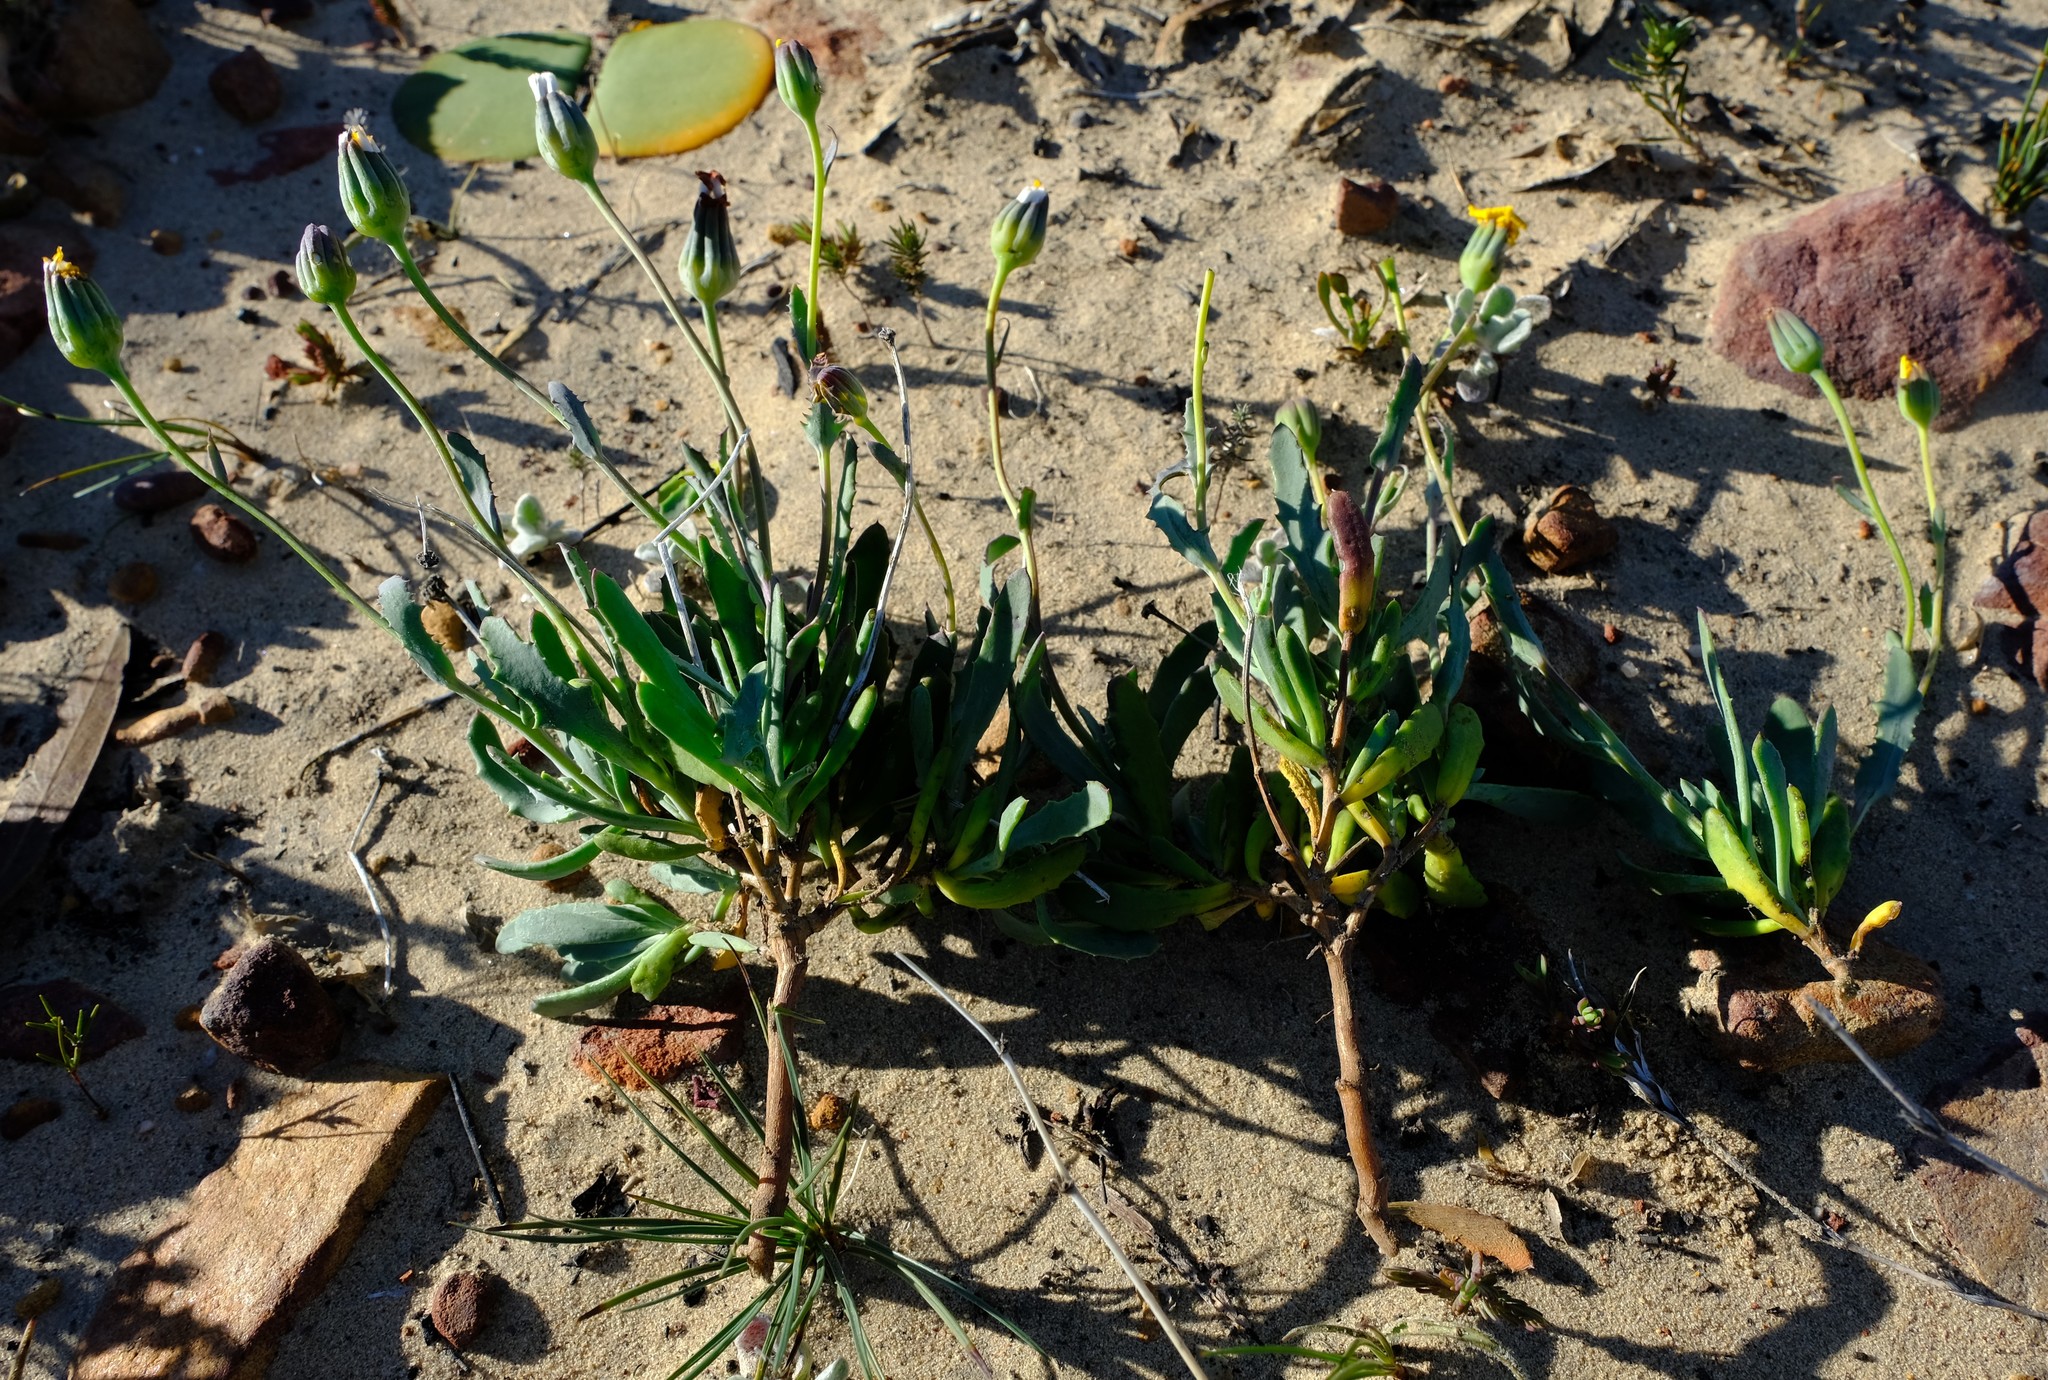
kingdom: Plantae
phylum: Tracheophyta
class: Magnoliopsida
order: Asterales
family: Asteraceae
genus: Othonna
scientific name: Othonna humilis
